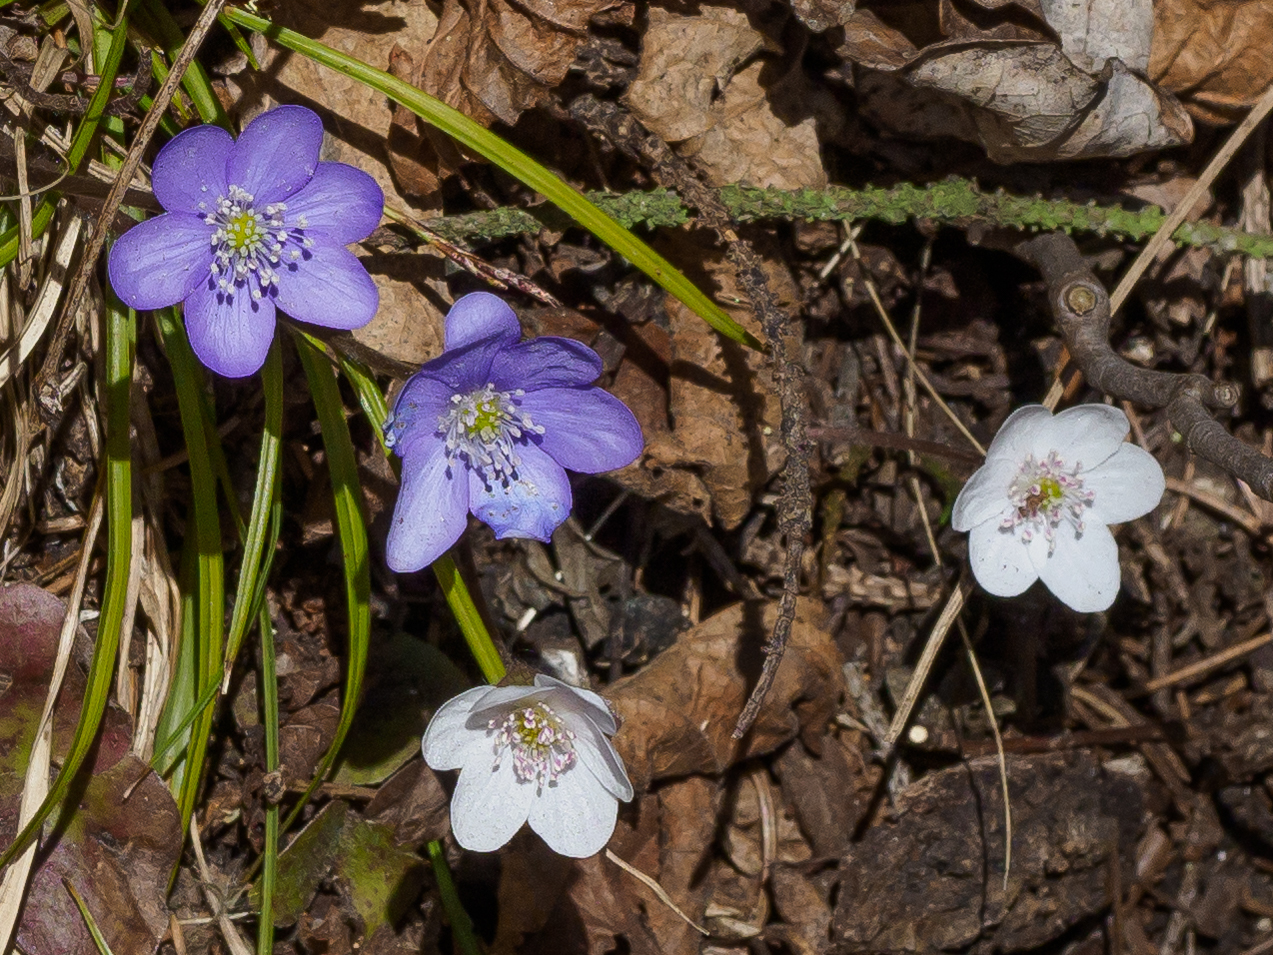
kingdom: Plantae
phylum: Tracheophyta
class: Magnoliopsida
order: Ranunculales
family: Ranunculaceae
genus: Hepatica
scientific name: Hepatica nobilis
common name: Liverleaf
